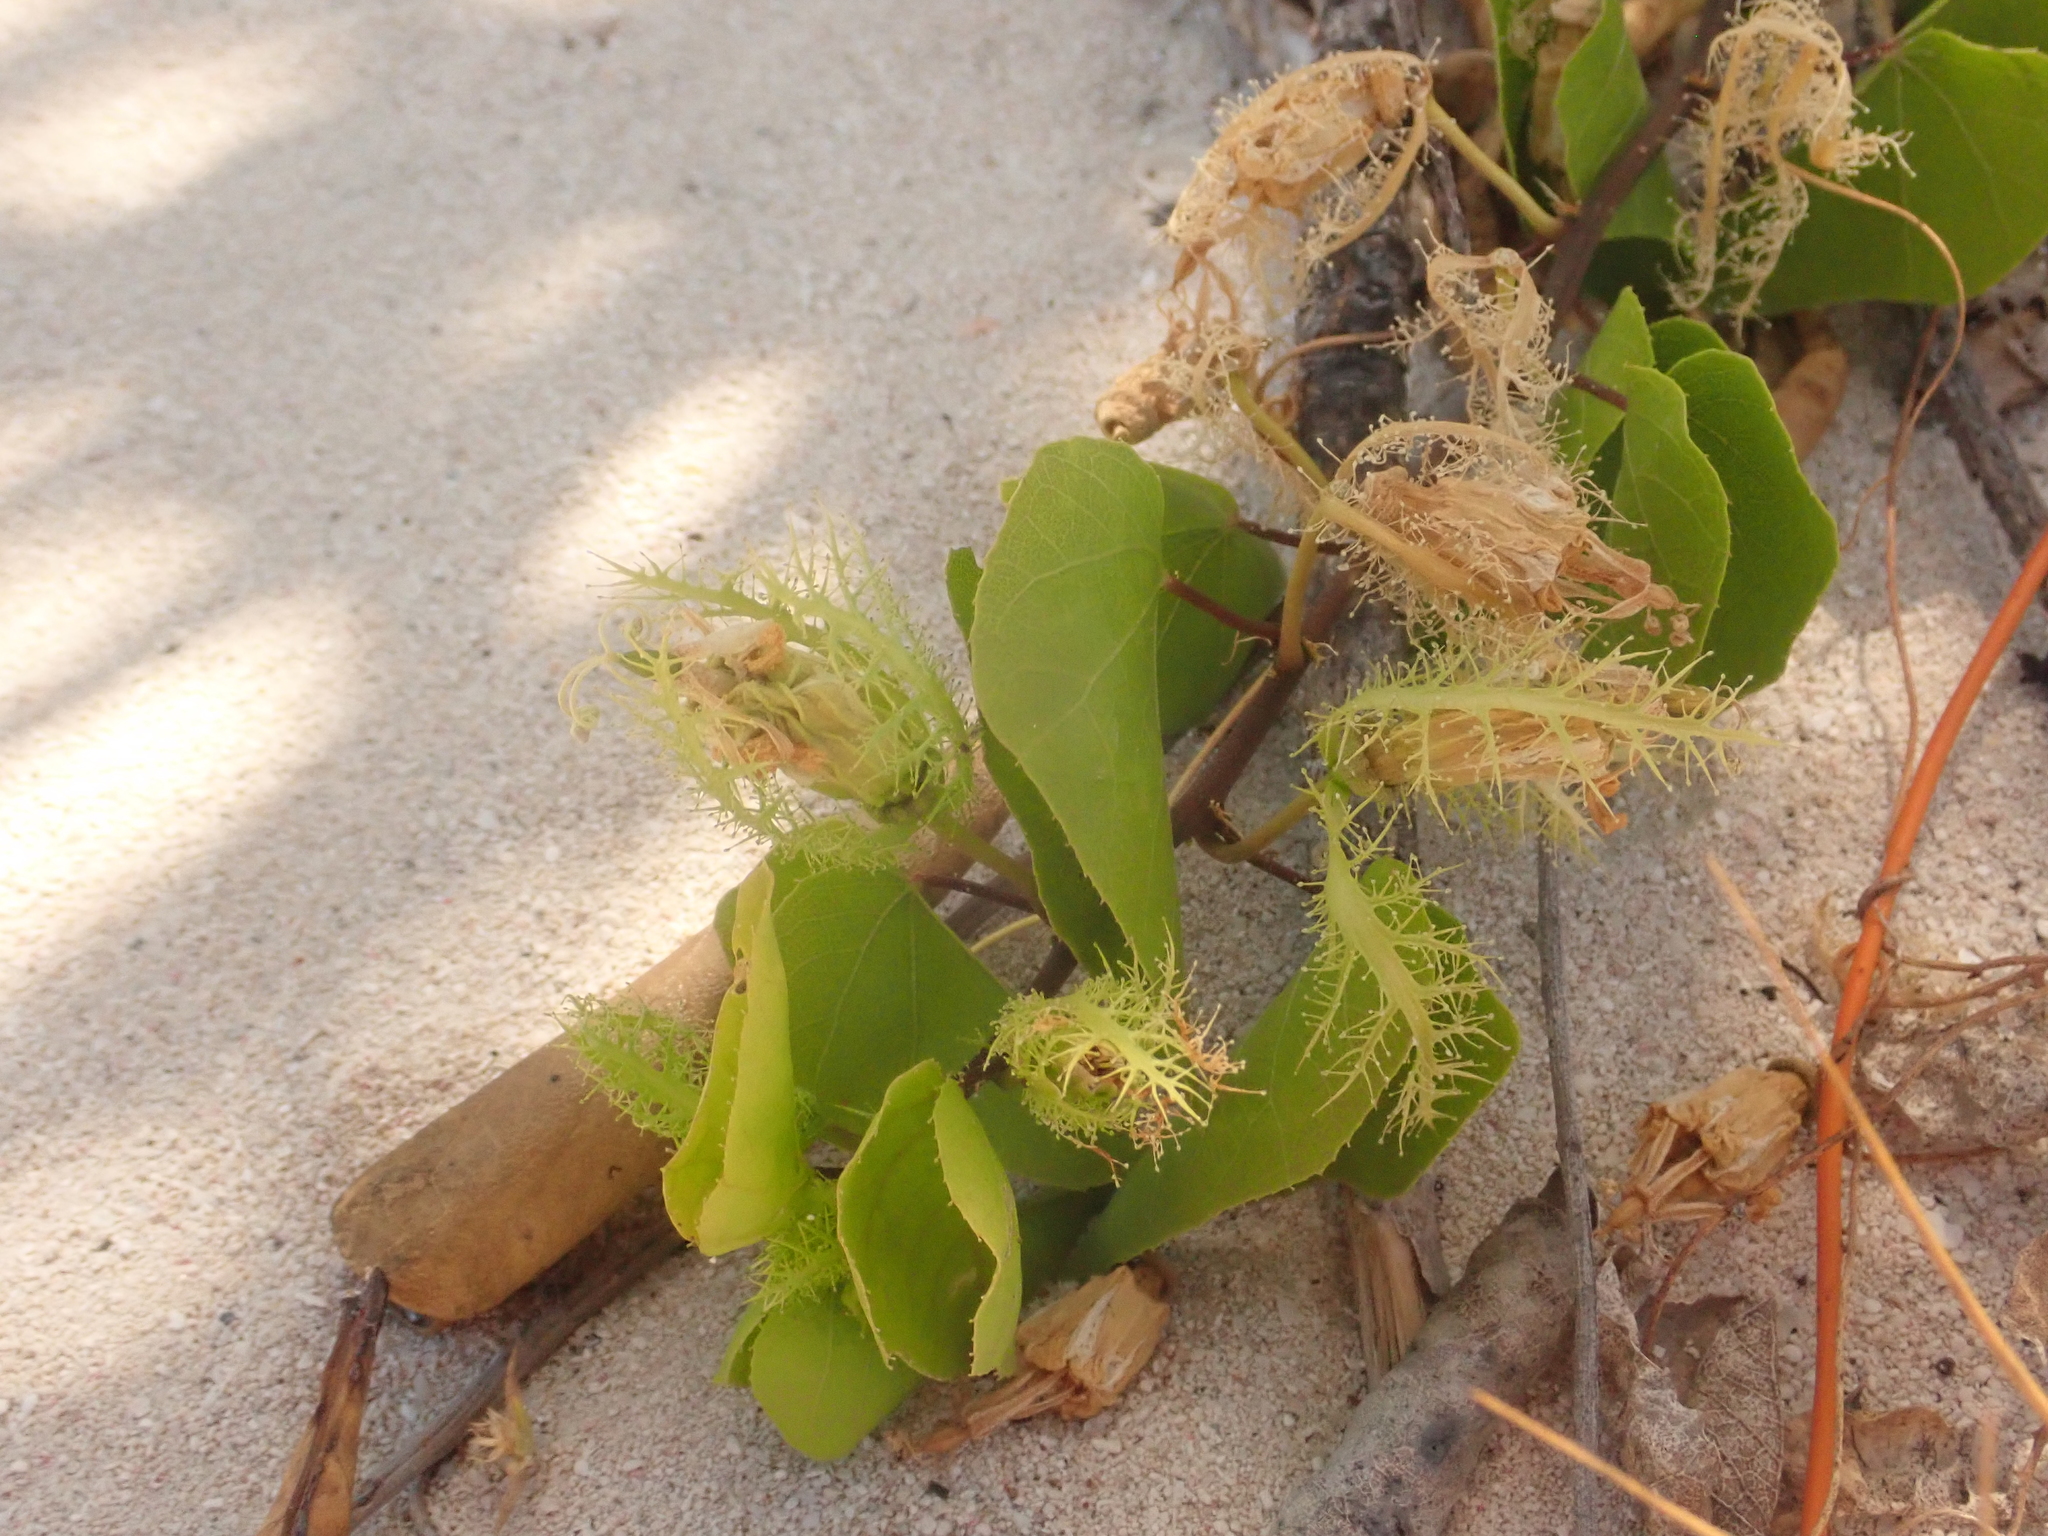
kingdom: Plantae
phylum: Tracheophyta
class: Magnoliopsida
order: Malpighiales
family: Passifloraceae
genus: Passiflora
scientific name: Passiflora pectinata
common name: White passionflower
